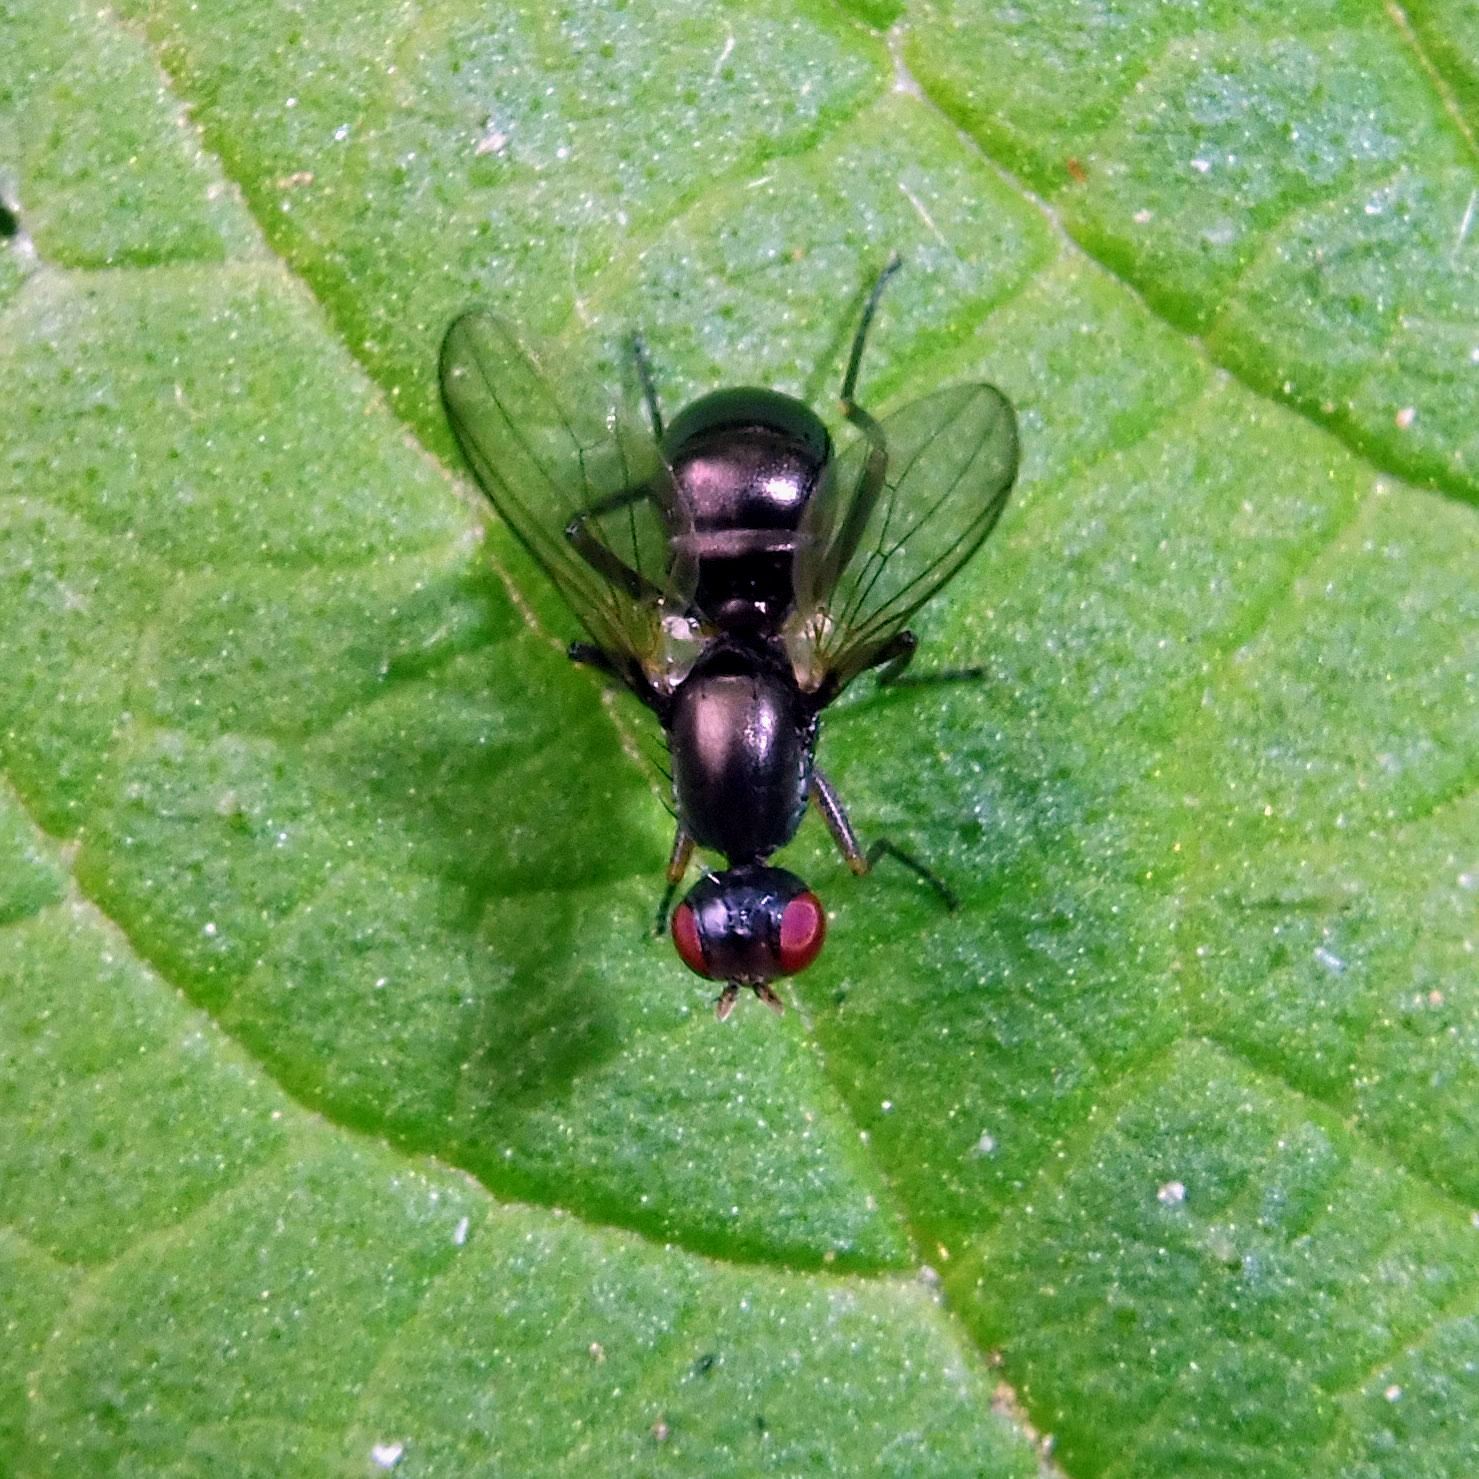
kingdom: Animalia
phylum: Arthropoda
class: Insecta
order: Diptera
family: Sepsidae
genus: Nemopoda
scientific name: Nemopoda nitidula
